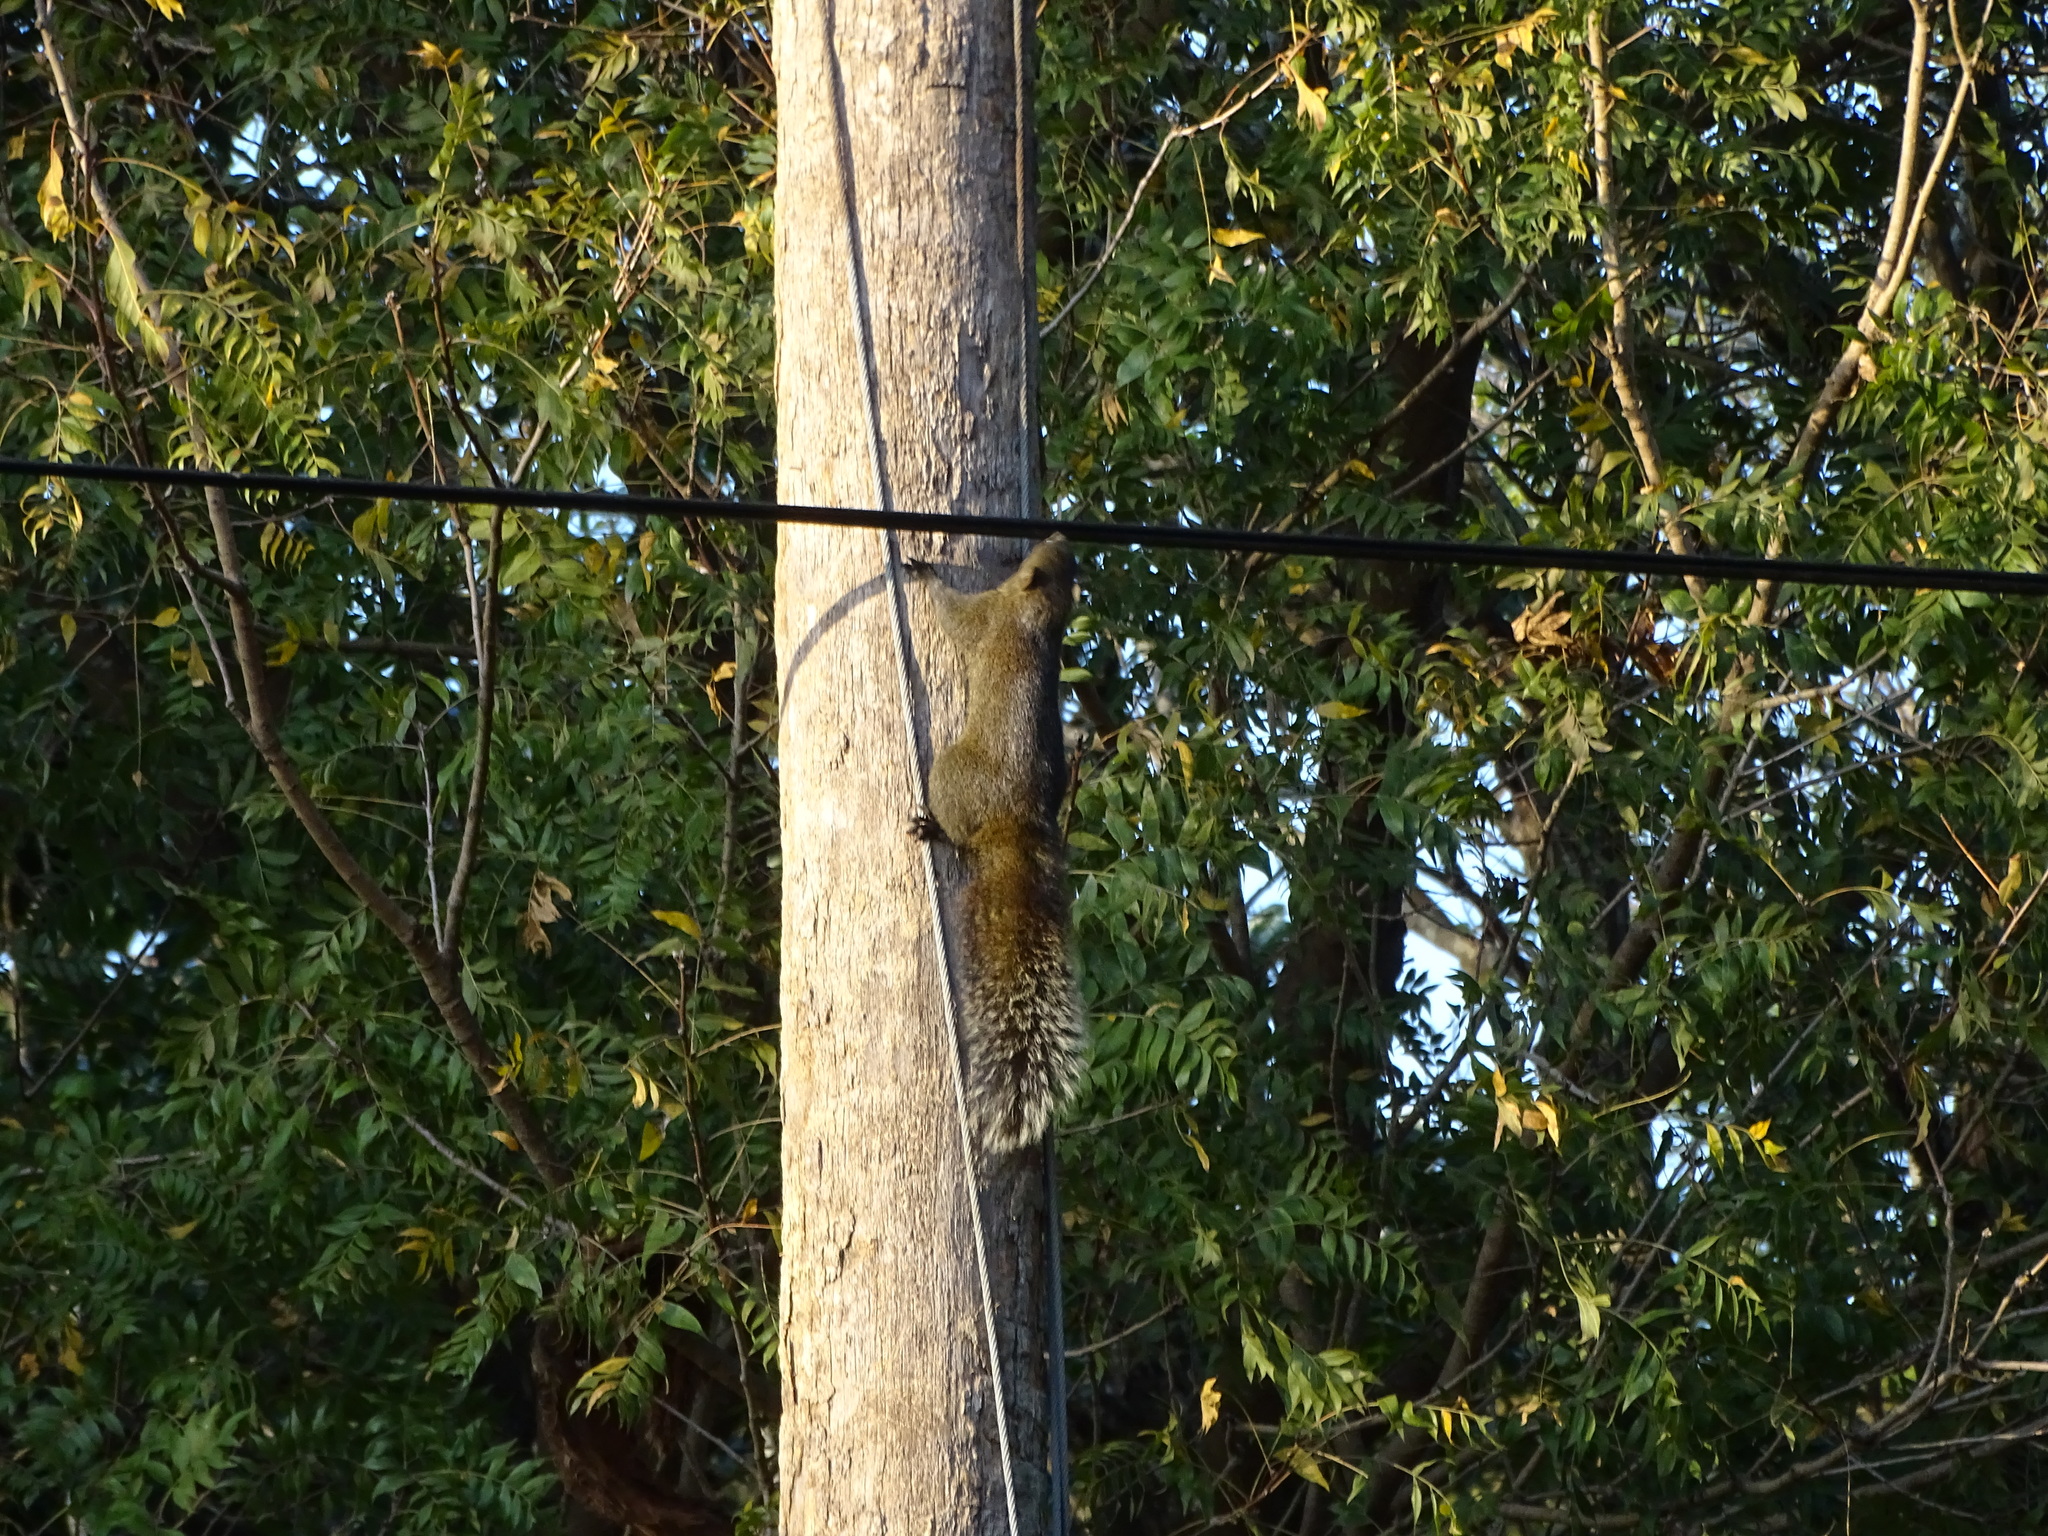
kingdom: Animalia
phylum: Chordata
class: Mammalia
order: Rodentia
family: Sciuridae
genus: Callosciurus
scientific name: Callosciurus erythraeus
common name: Pallas's squirrel
